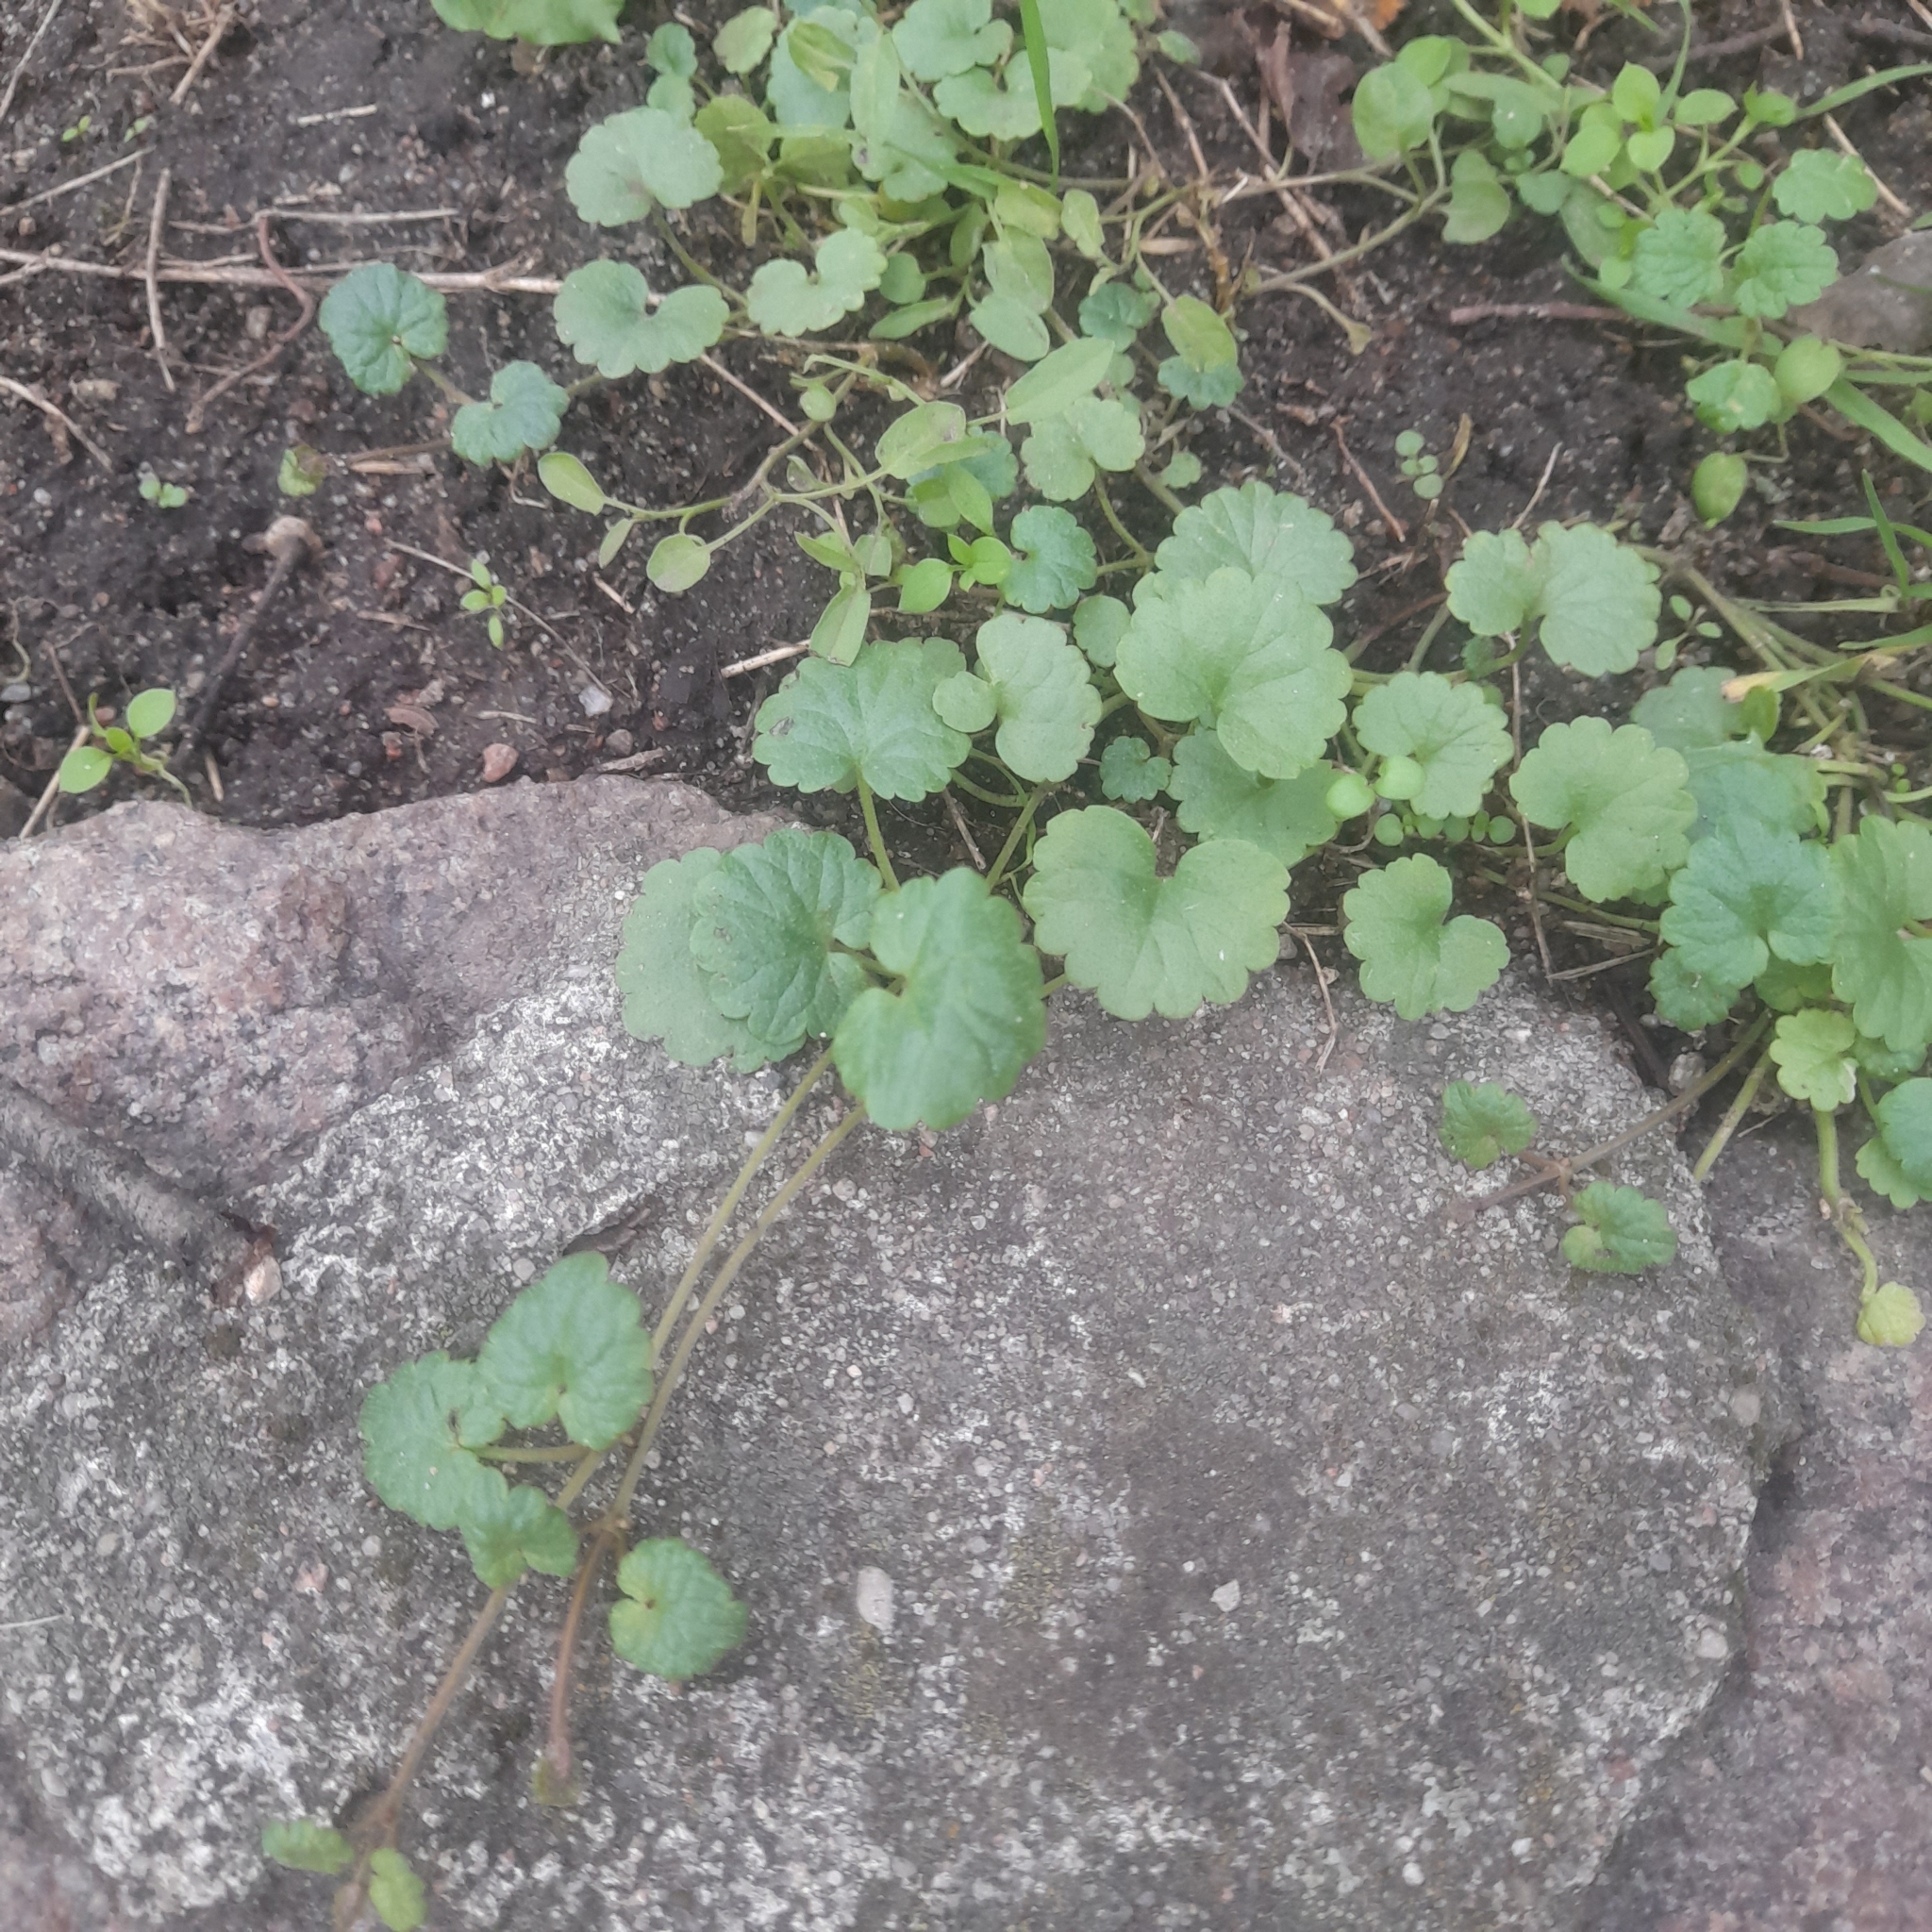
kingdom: Plantae
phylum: Tracheophyta
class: Magnoliopsida
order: Lamiales
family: Lamiaceae
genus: Glechoma
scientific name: Glechoma hederacea
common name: Ground ivy
